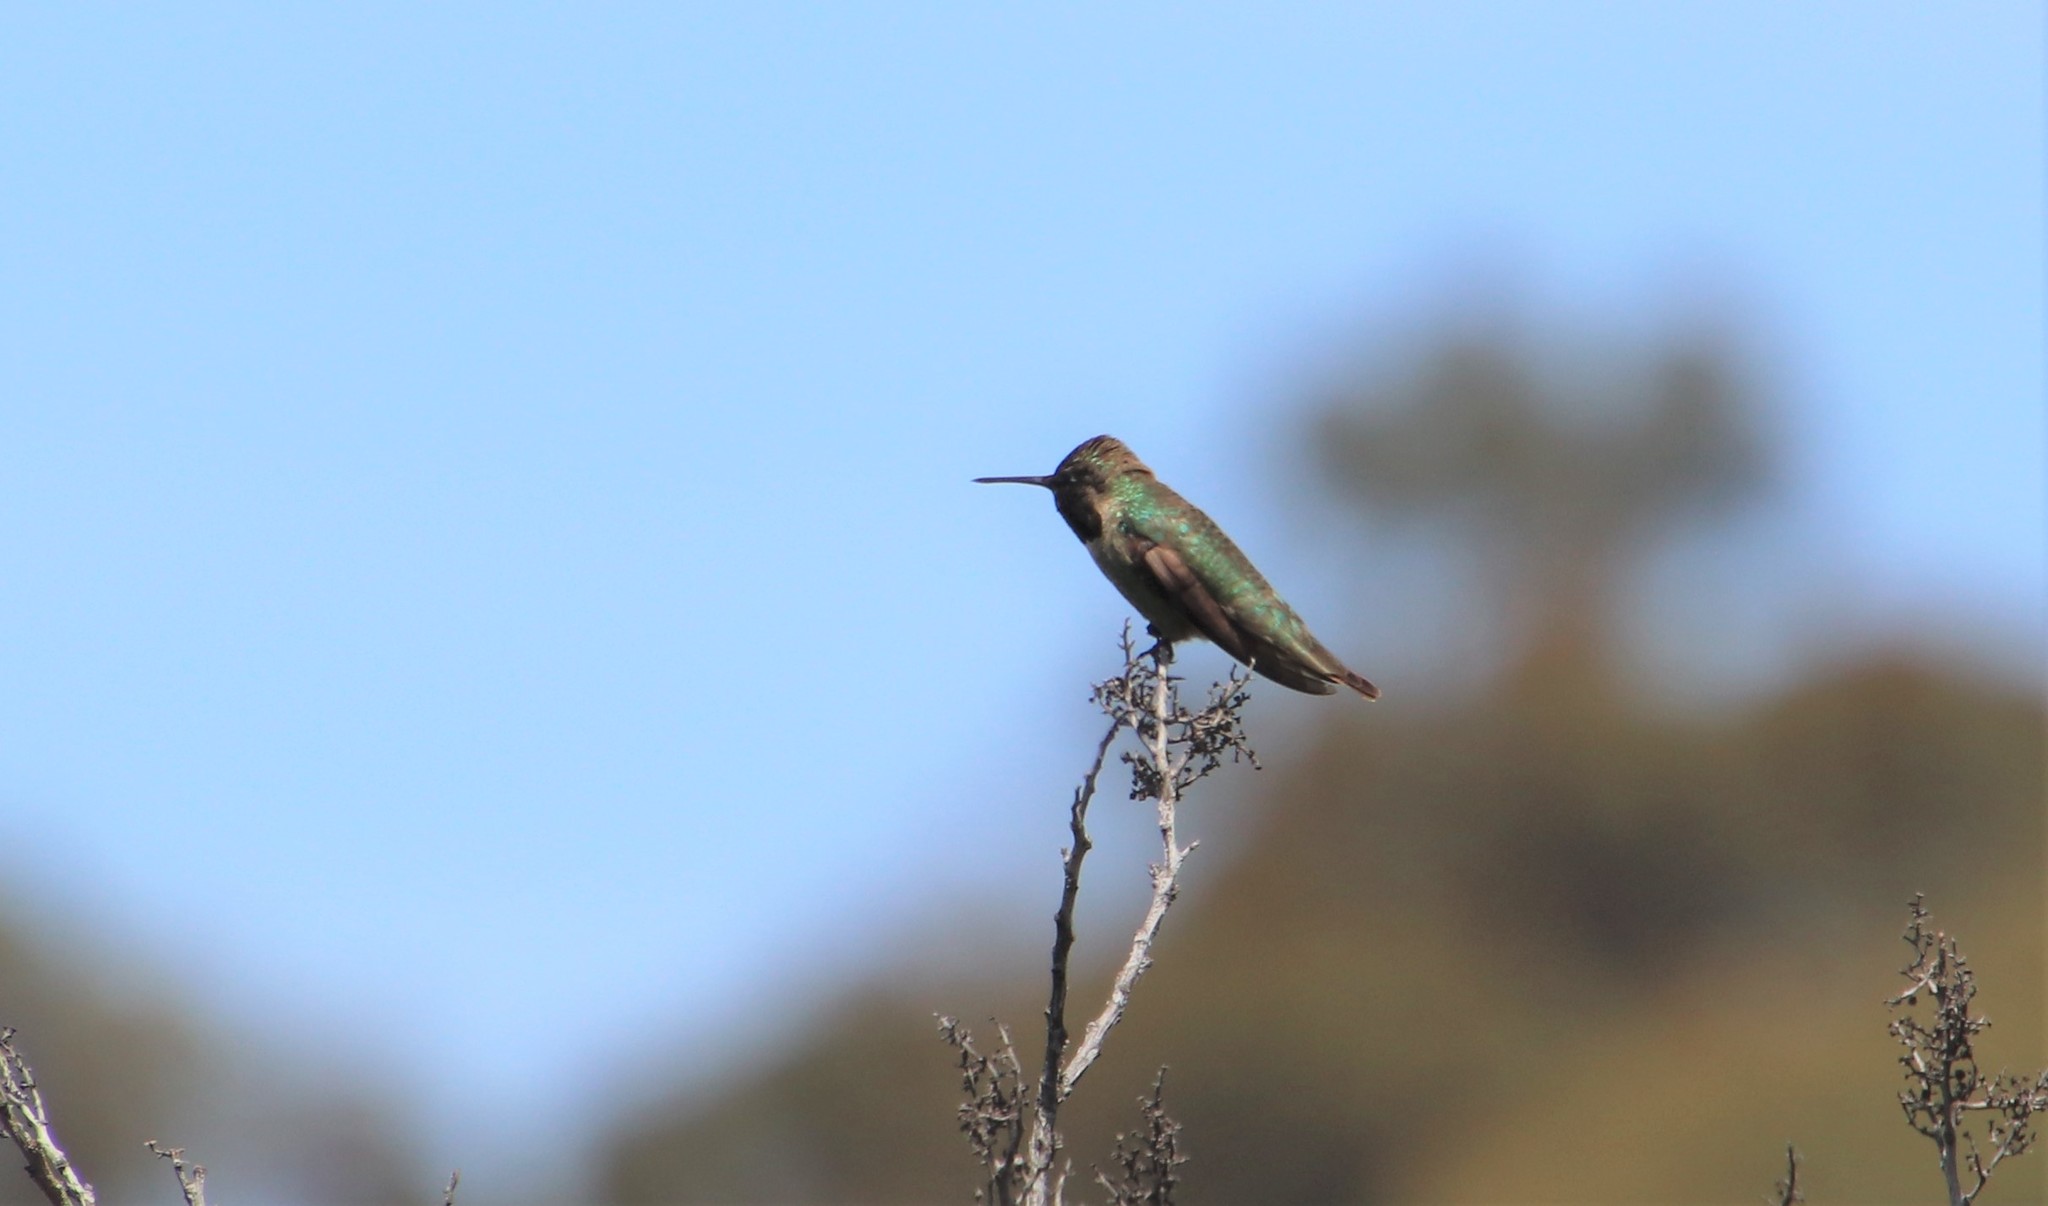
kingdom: Animalia
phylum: Chordata
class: Aves
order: Apodiformes
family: Trochilidae
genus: Calypte
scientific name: Calypte anna
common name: Anna's hummingbird
